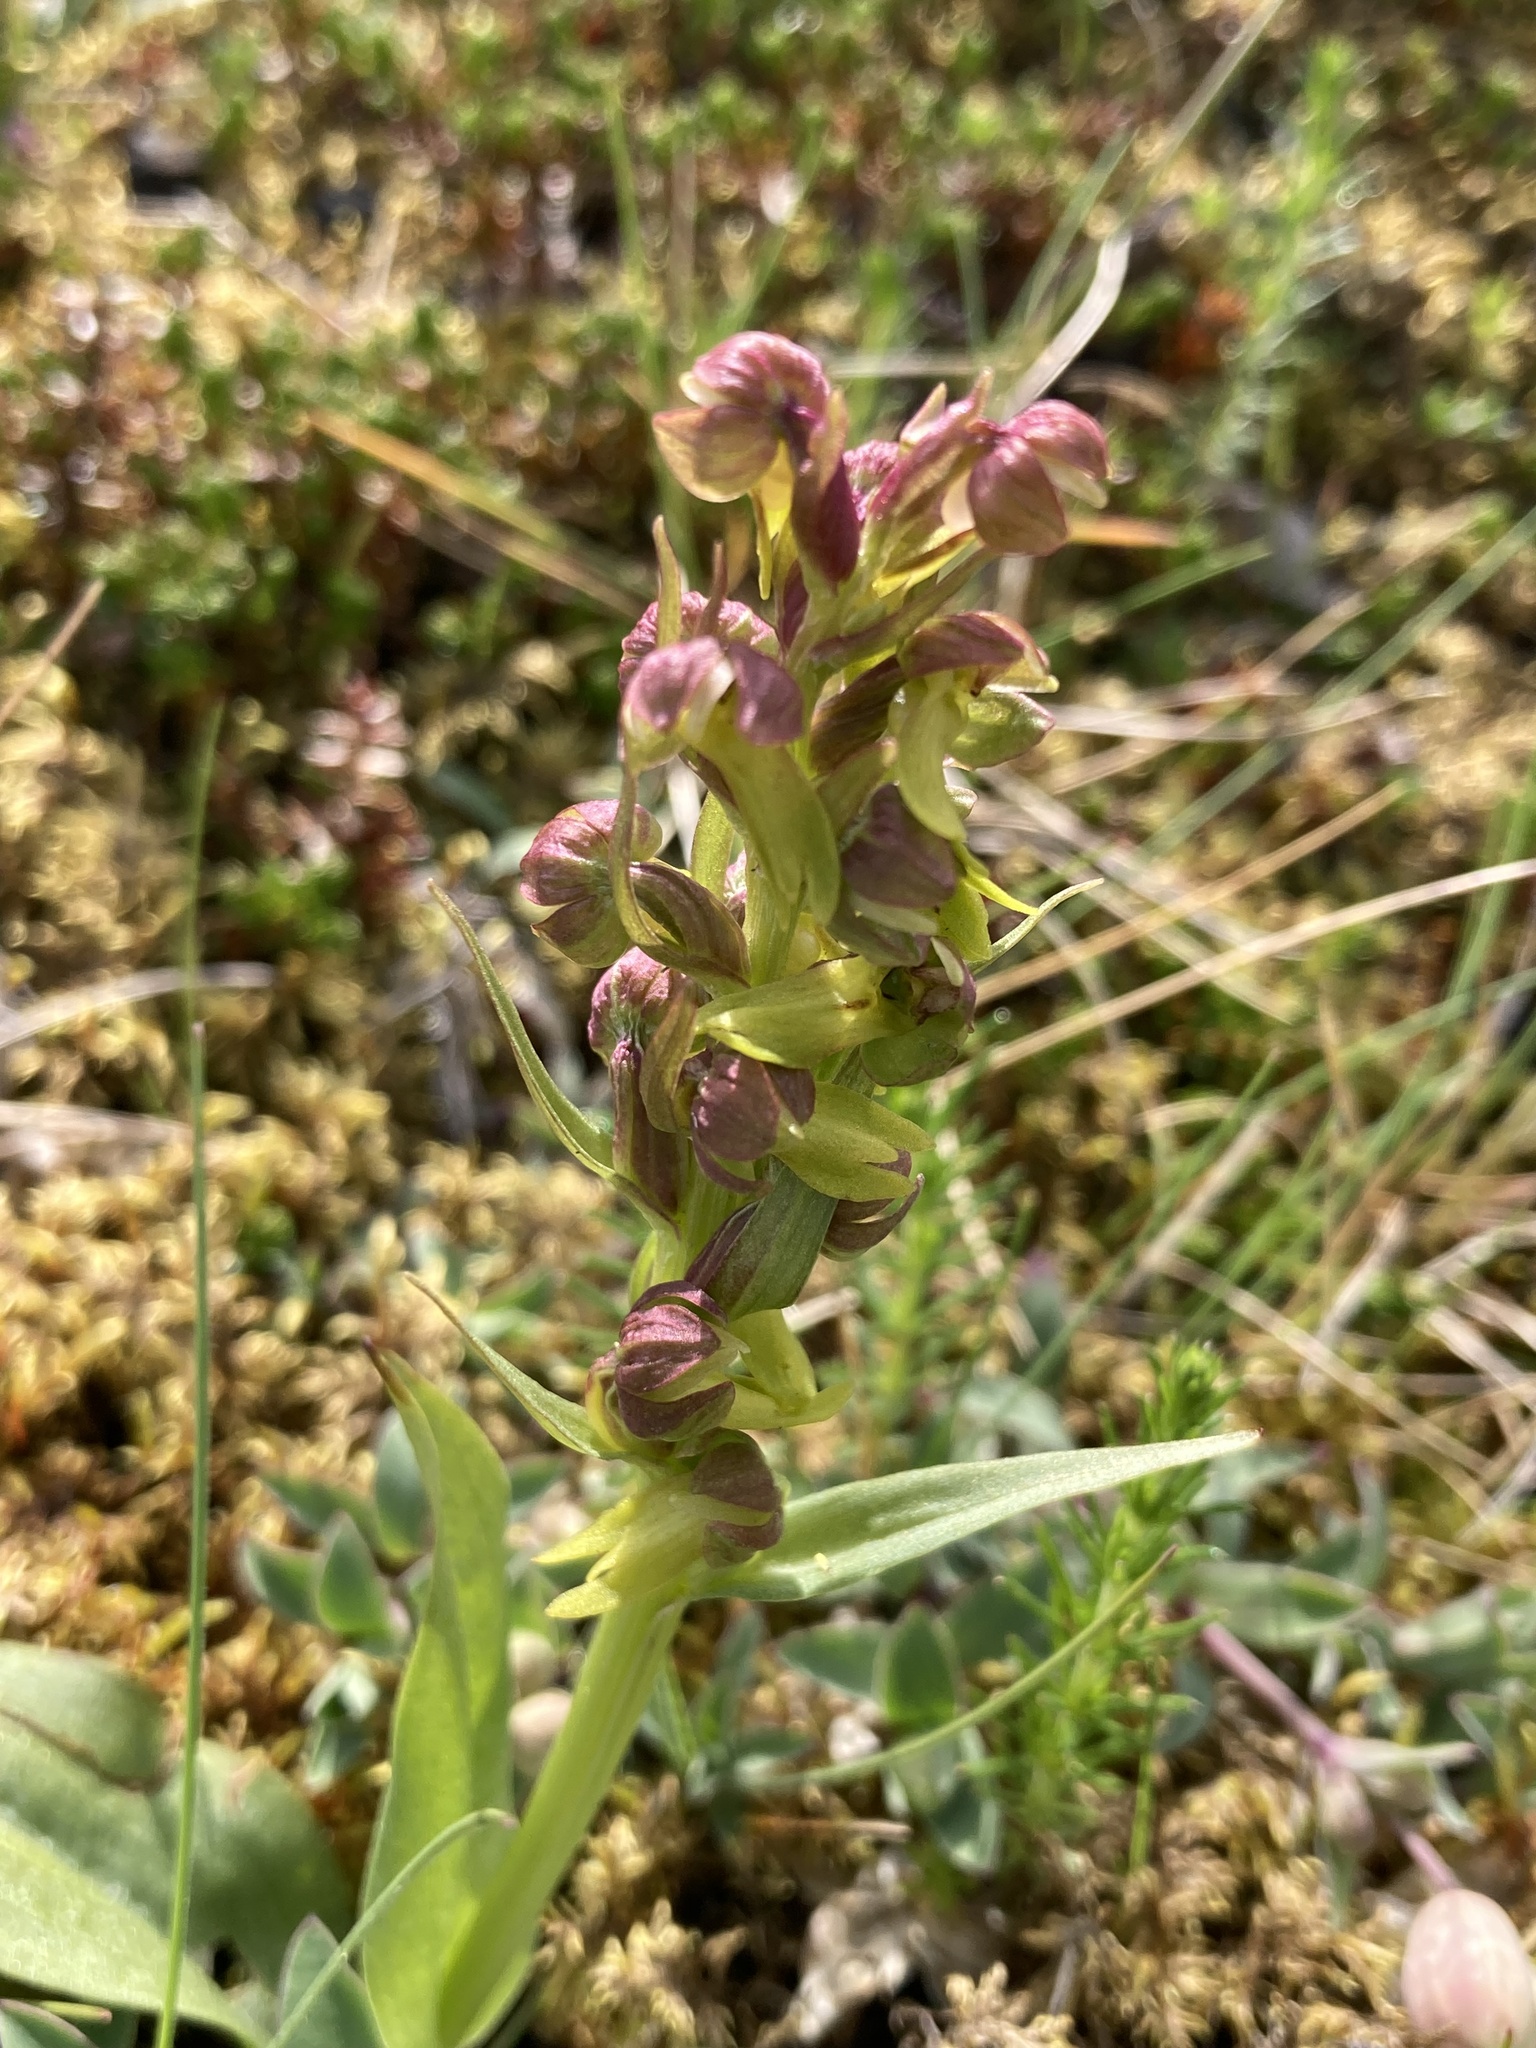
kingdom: Plantae
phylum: Tracheophyta
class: Liliopsida
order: Asparagales
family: Orchidaceae
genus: Dactylorhiza
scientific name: Dactylorhiza viridis
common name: Longbract frog orchid
